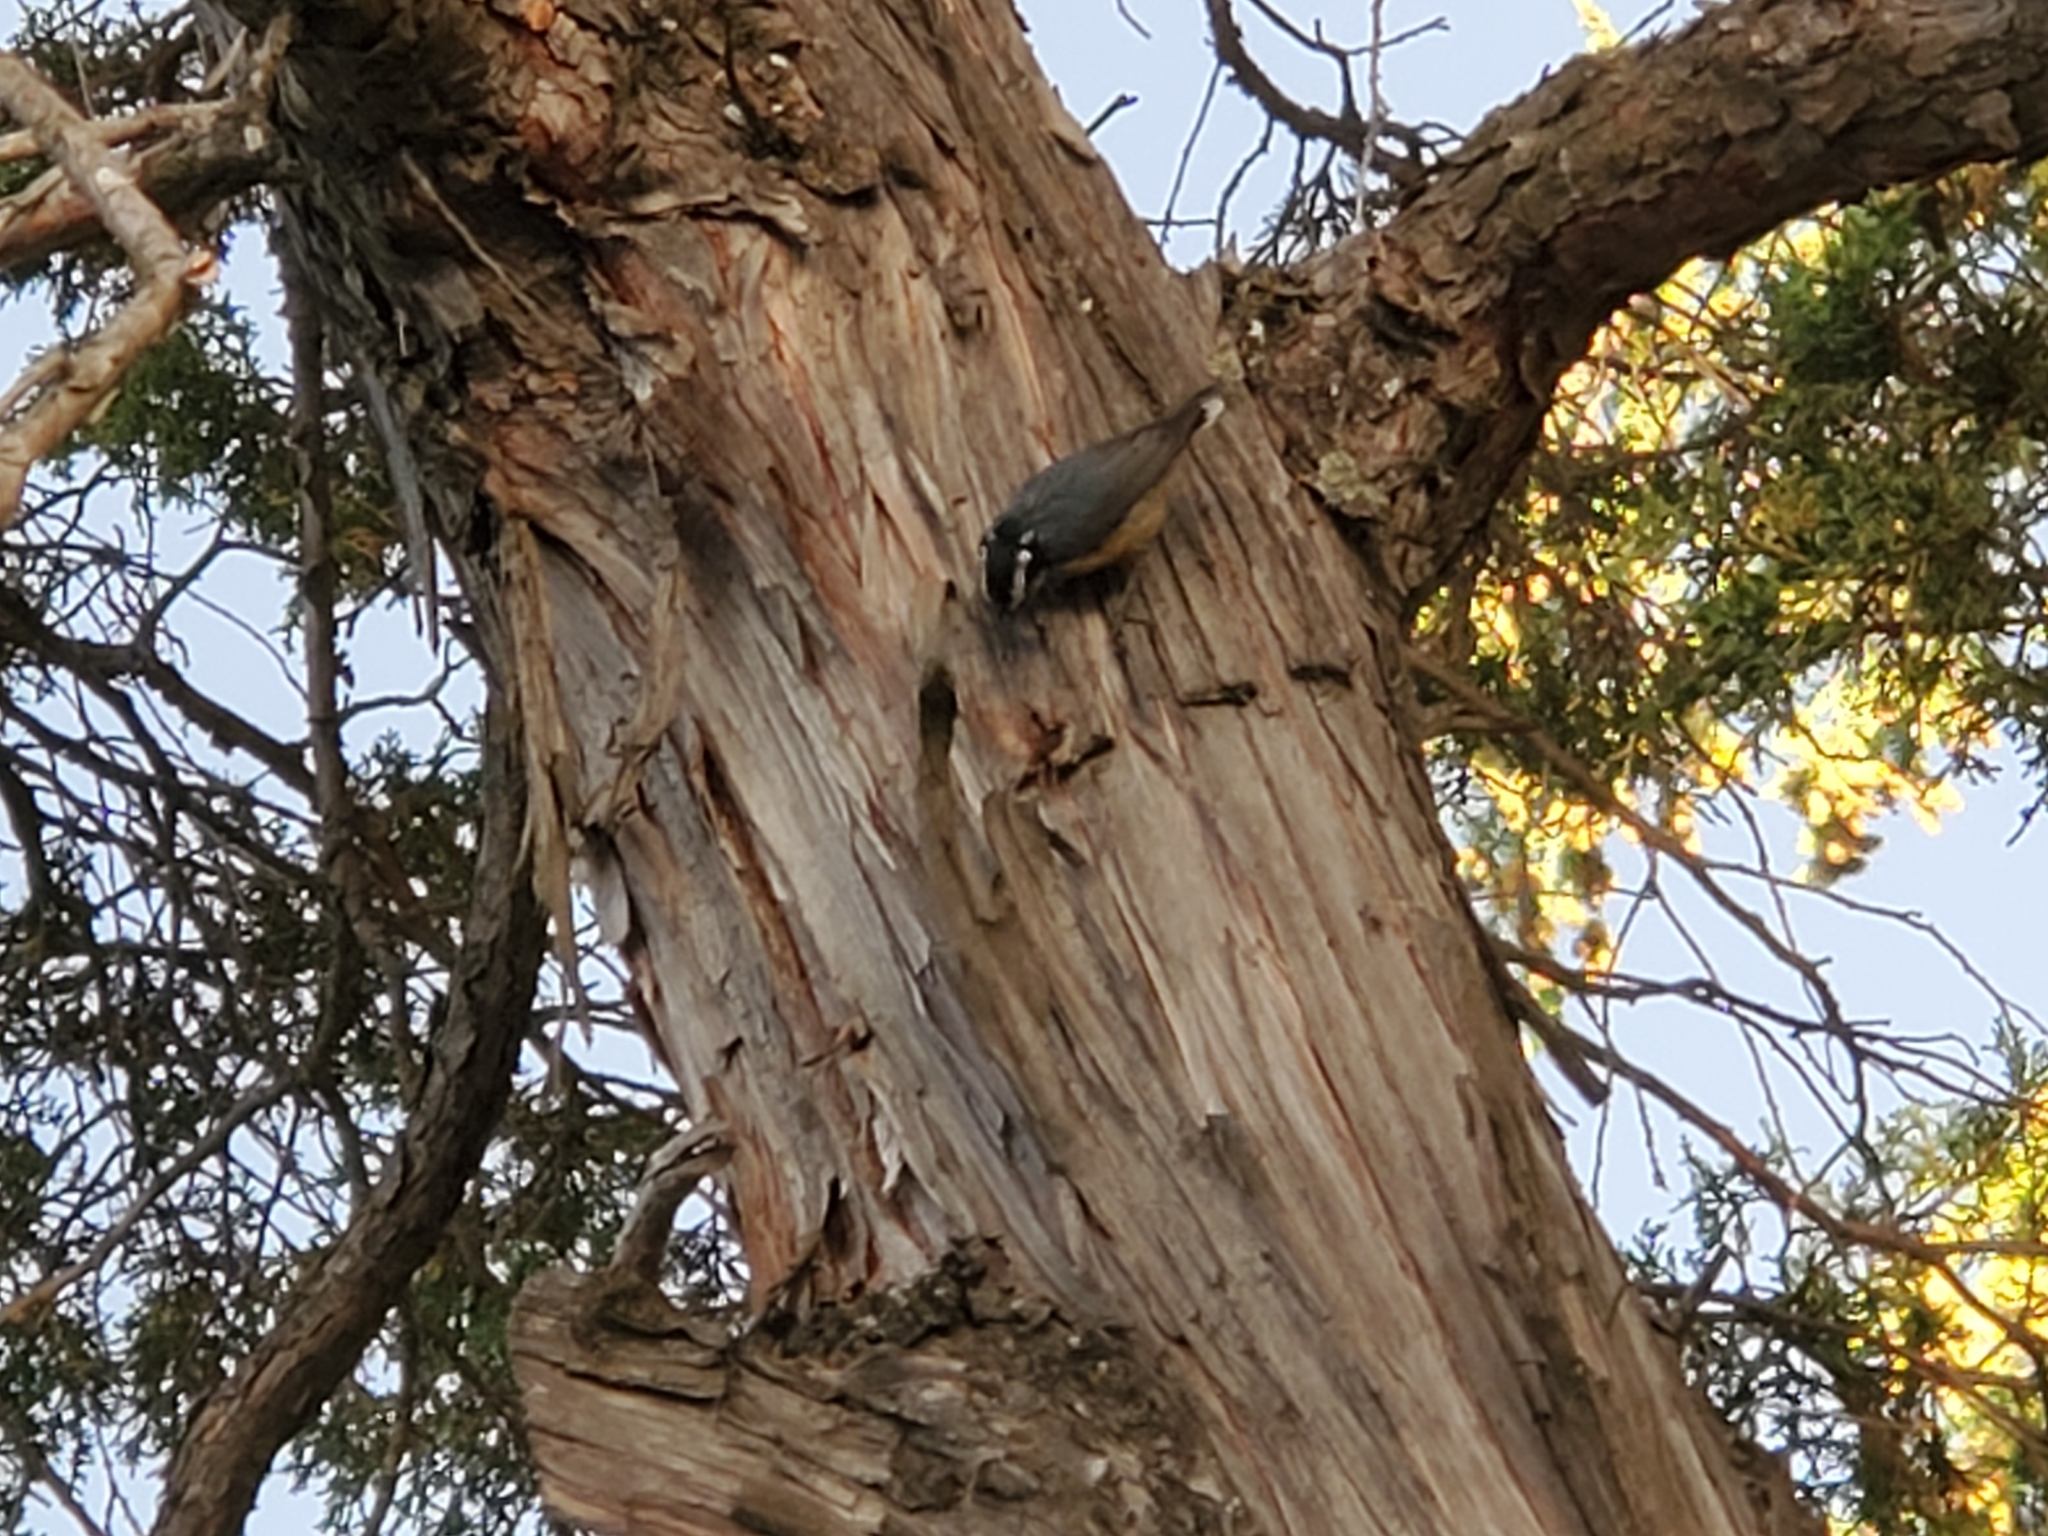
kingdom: Animalia
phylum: Chordata
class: Aves
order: Passeriformes
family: Sittidae
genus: Sitta
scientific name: Sitta canadensis
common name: Red-breasted nuthatch
